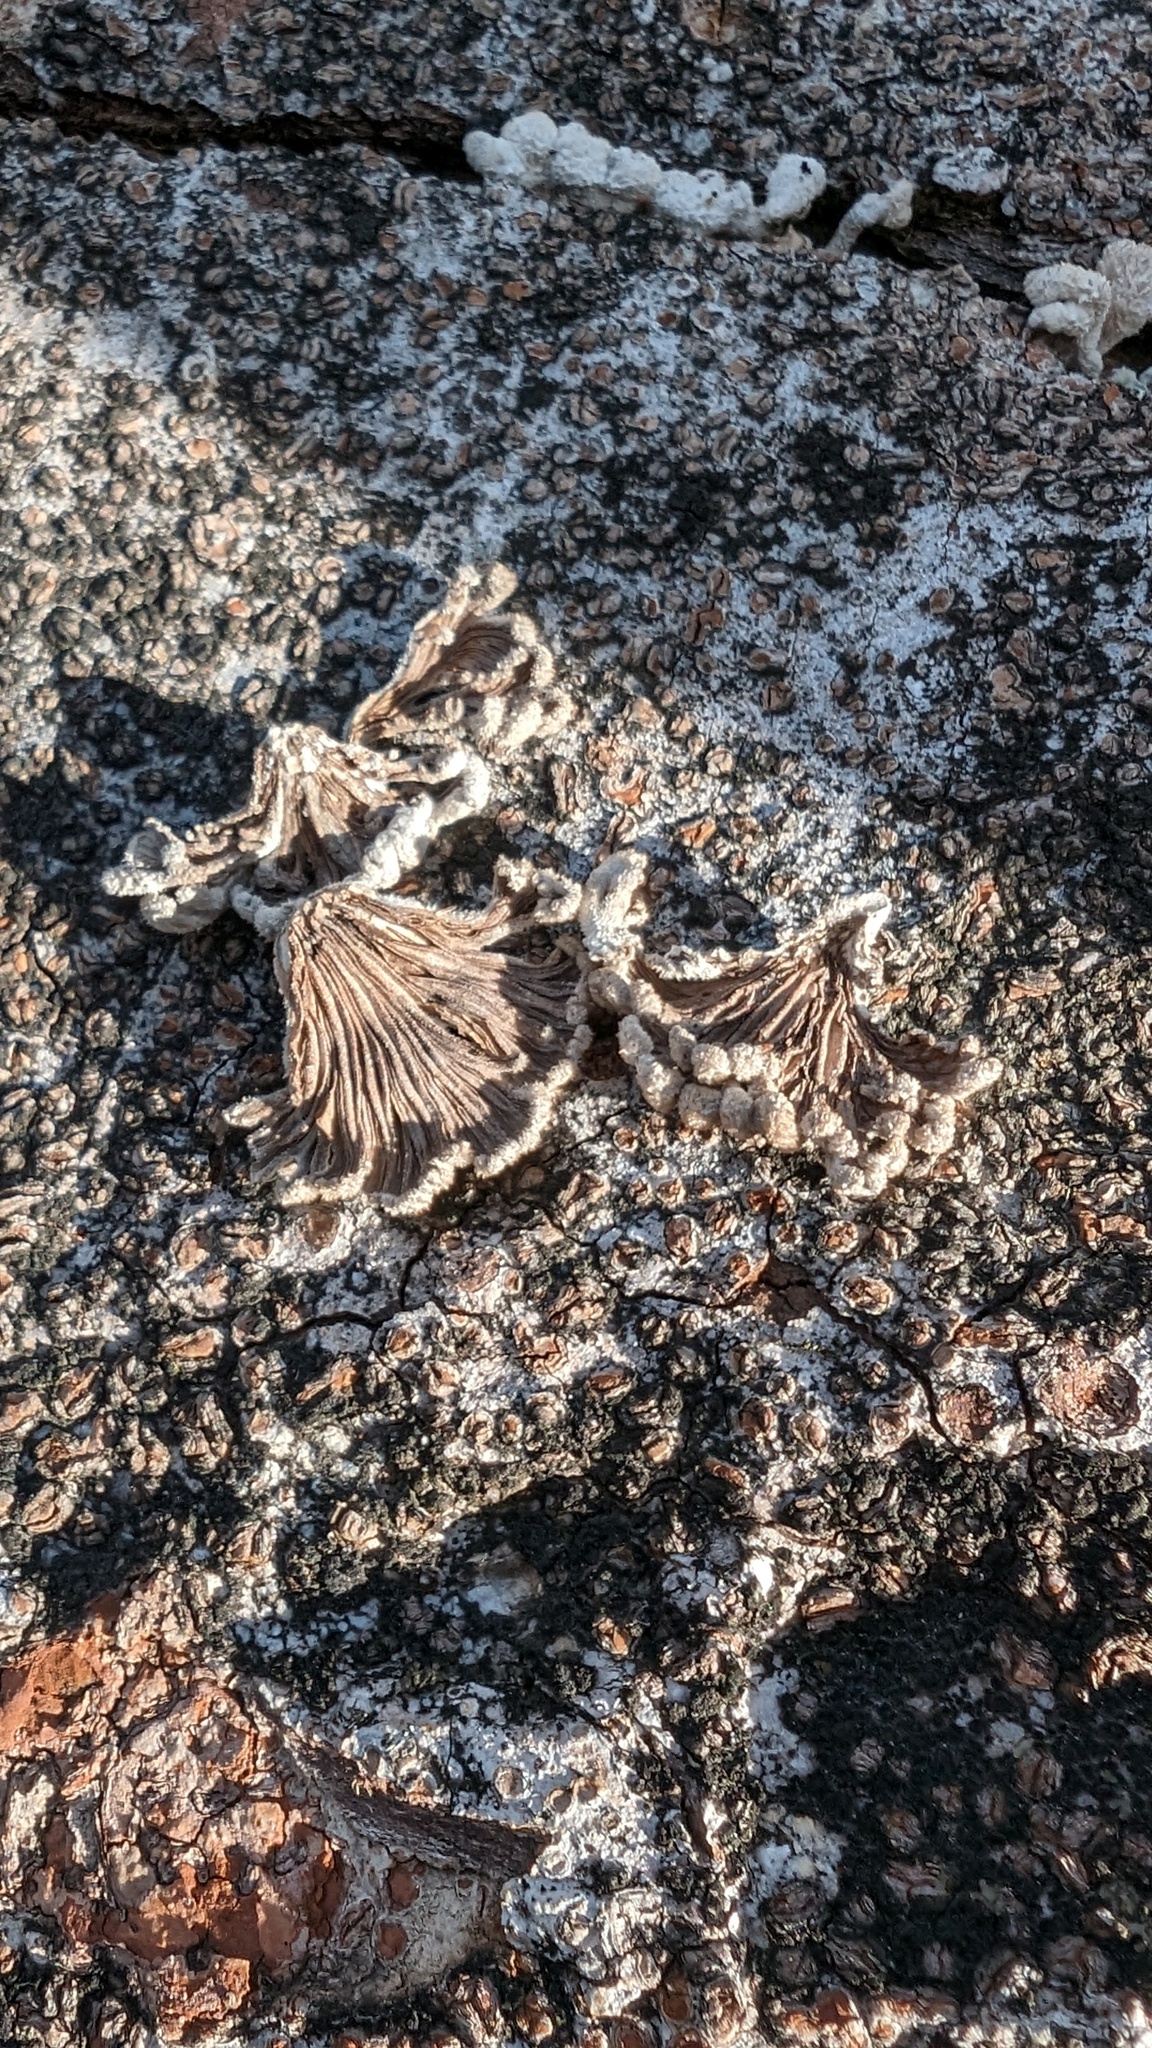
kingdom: Fungi
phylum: Basidiomycota
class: Agaricomycetes
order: Agaricales
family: Schizophyllaceae
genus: Schizophyllum
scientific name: Schizophyllum commune
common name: Common porecrust
